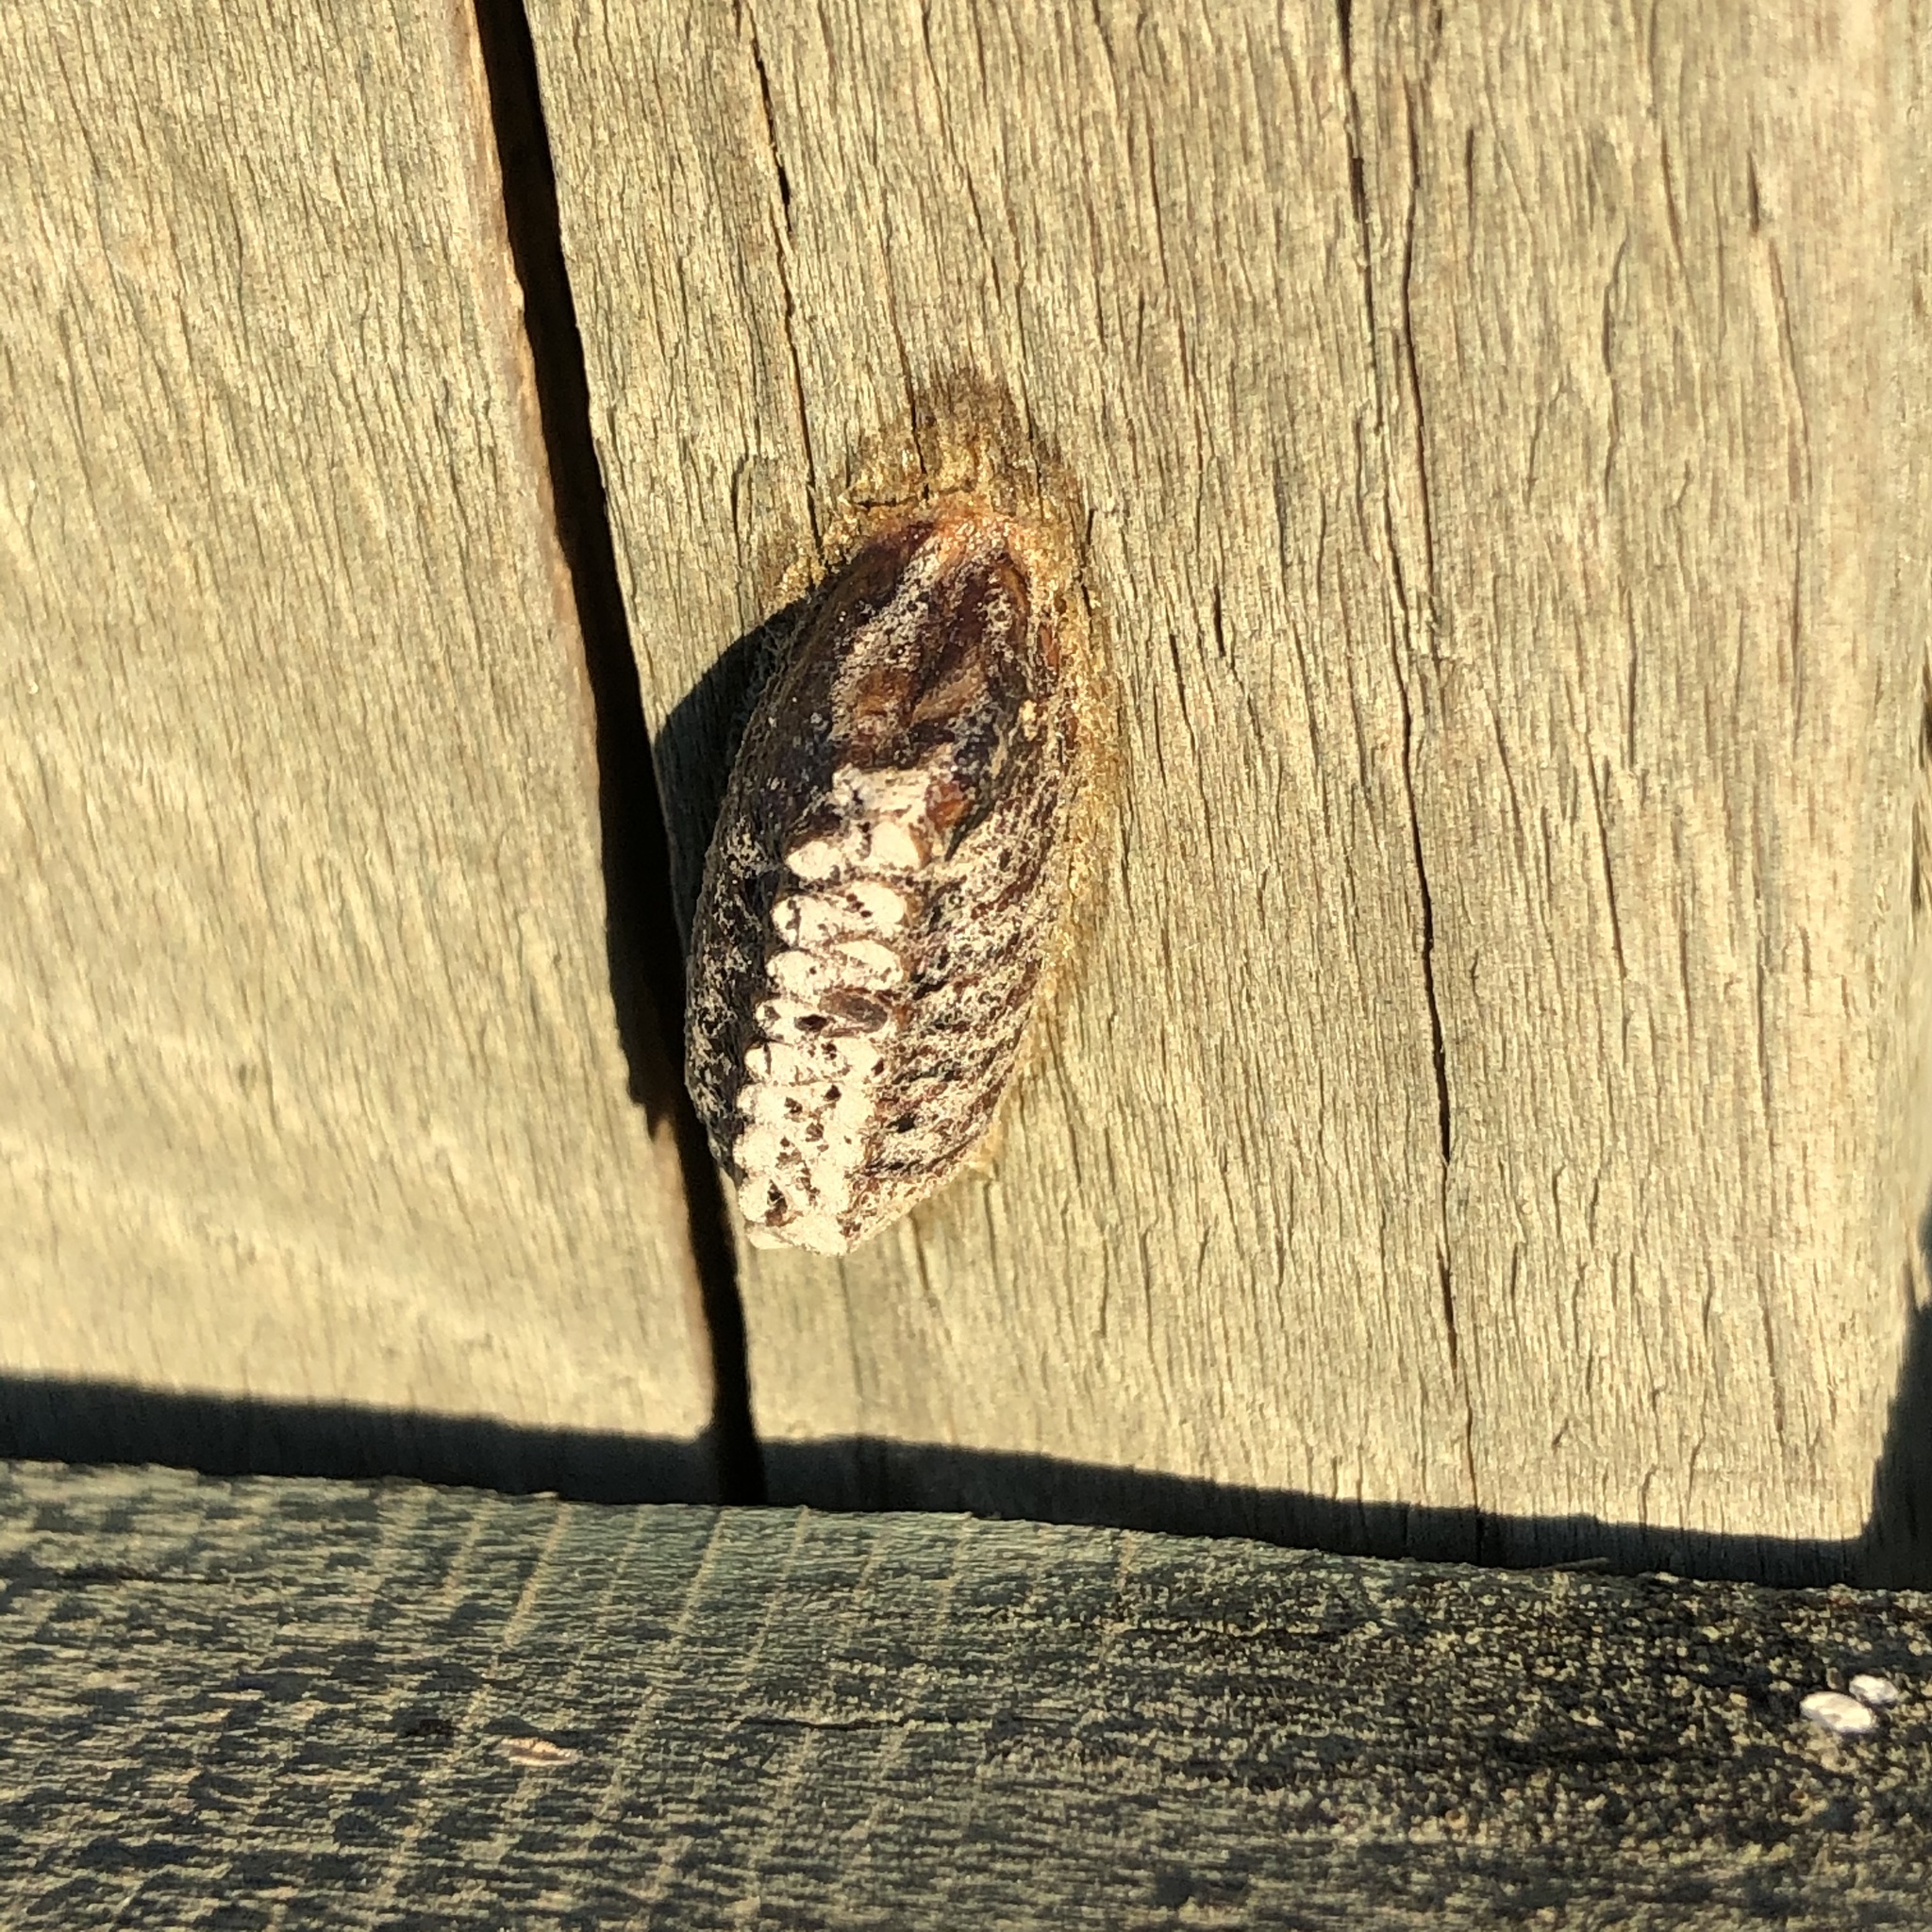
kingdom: Animalia
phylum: Arthropoda
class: Insecta
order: Mantodea
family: Mantidae
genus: Orthodera
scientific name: Orthodera novaezealandiae
